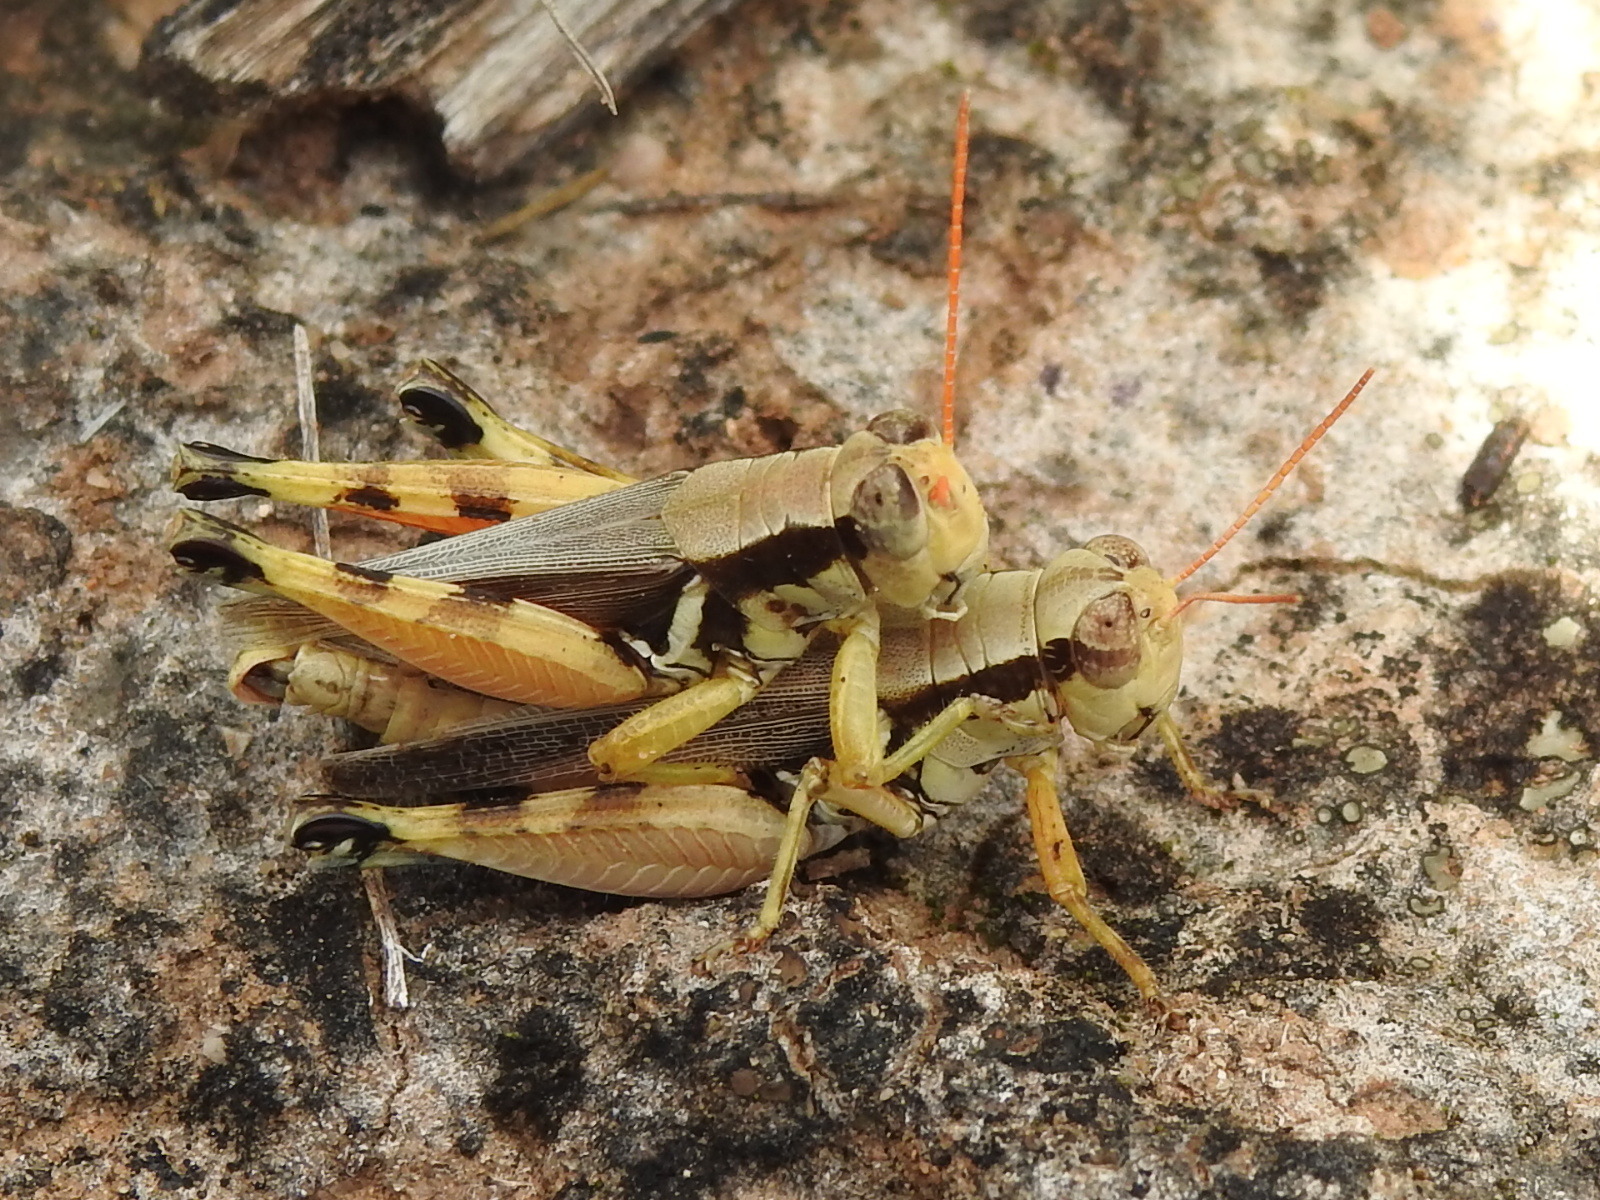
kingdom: Animalia
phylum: Arthropoda
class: Insecta
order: Orthoptera
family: Acrididae
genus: Melanoplus
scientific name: Melanoplus glaucipes
